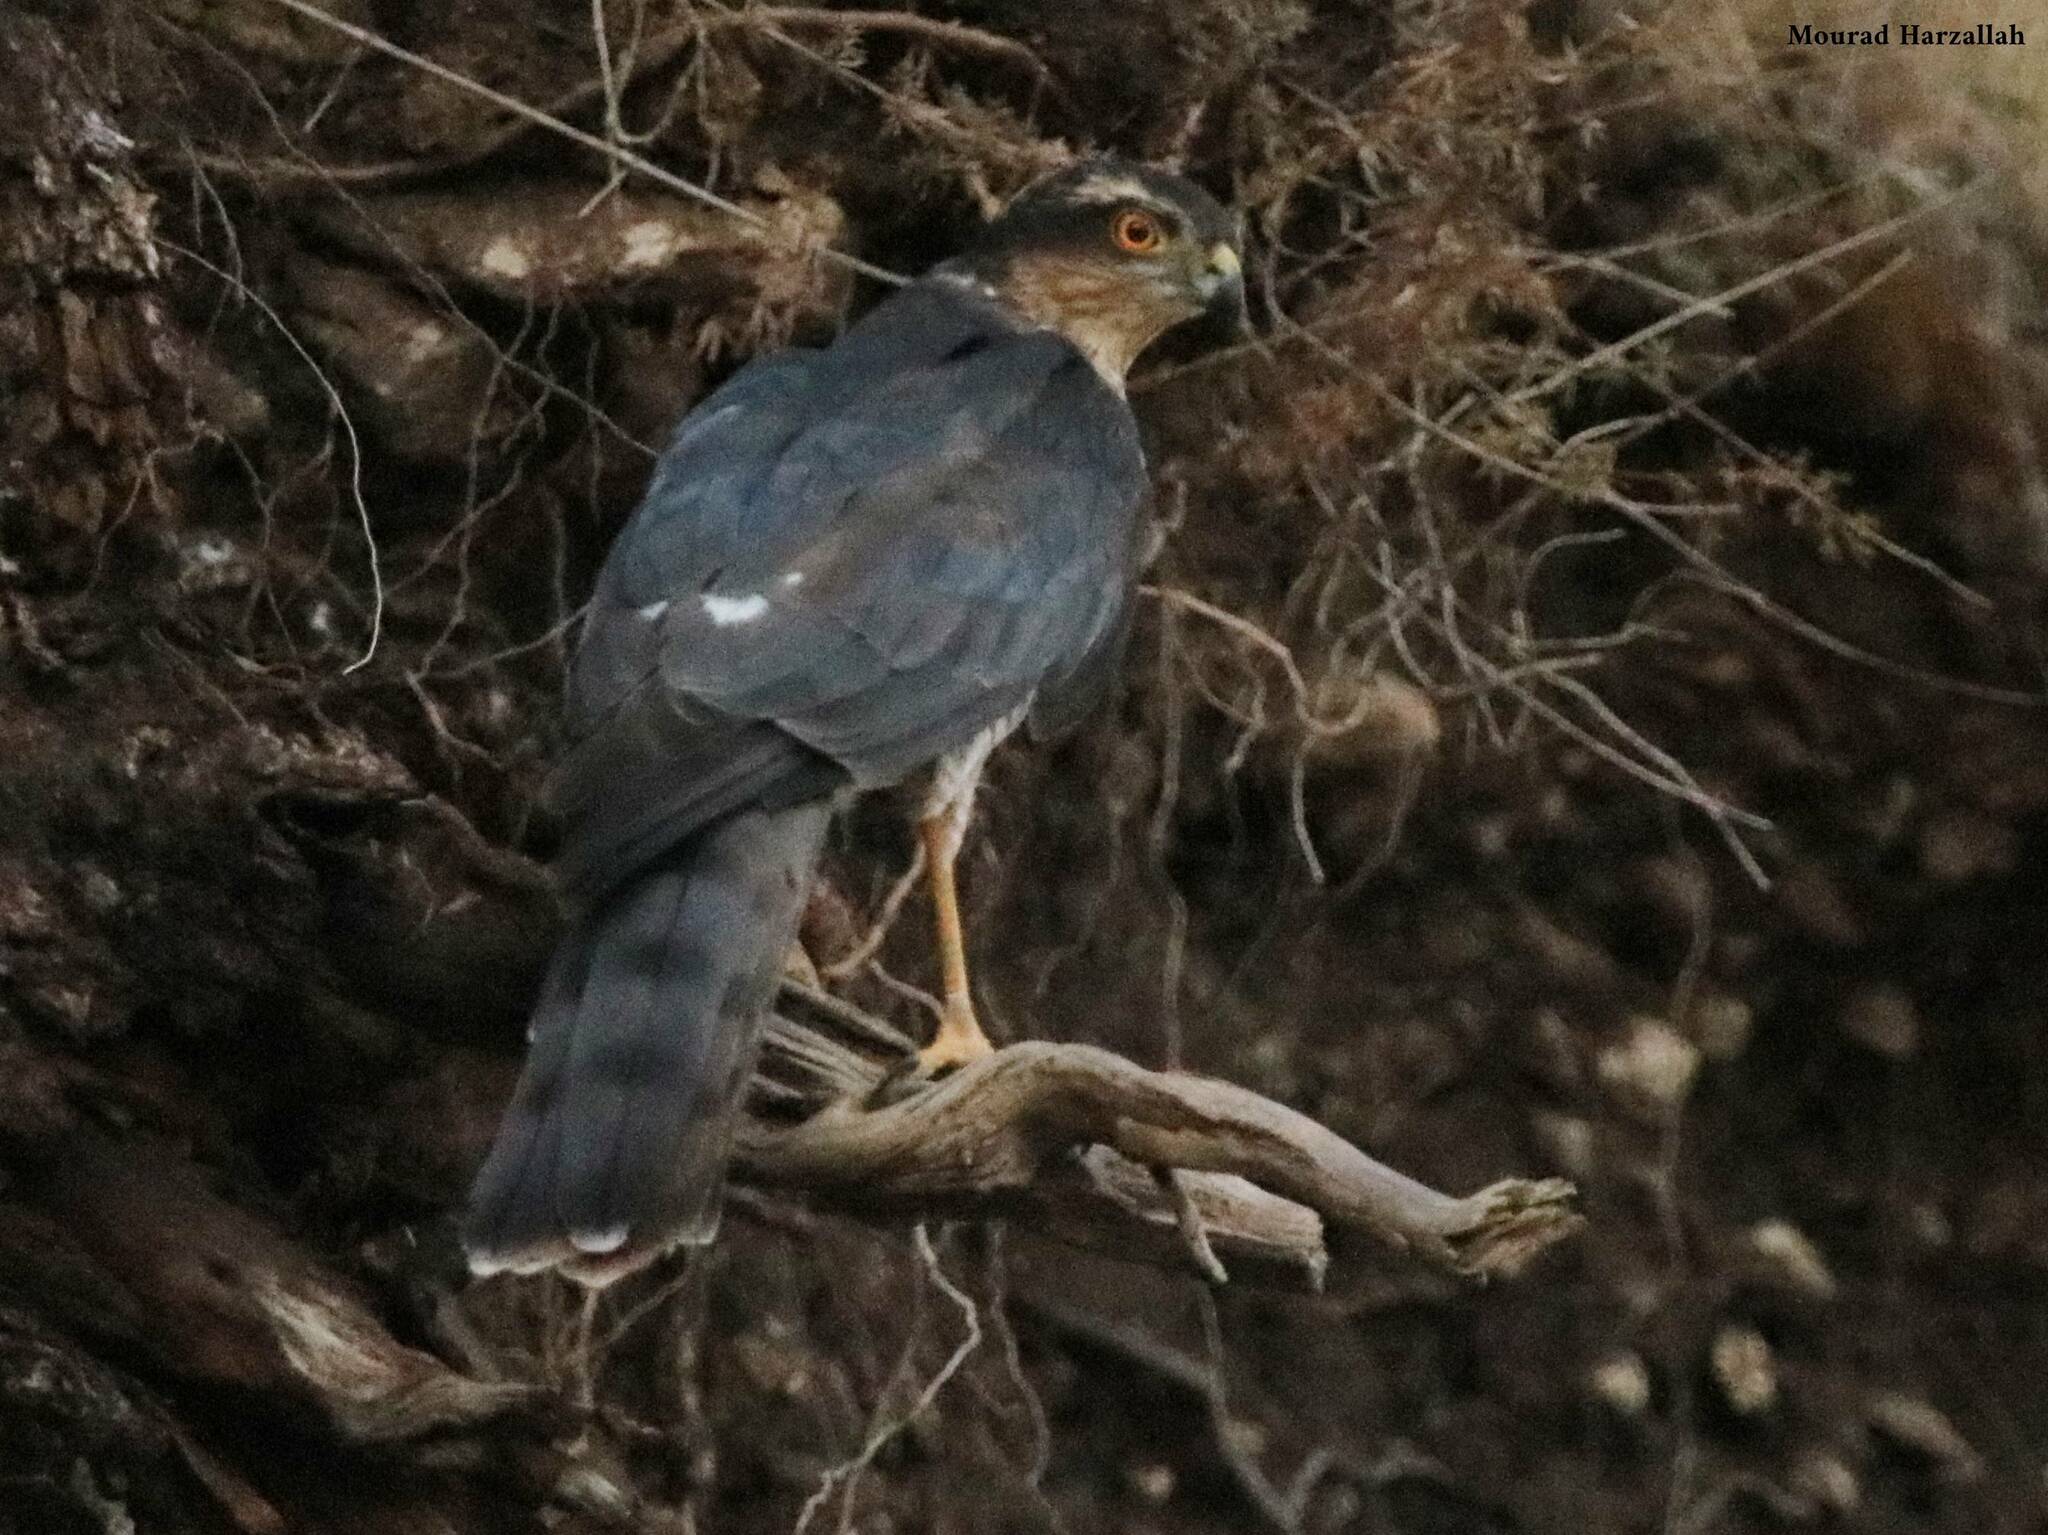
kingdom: Animalia
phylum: Chordata
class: Aves
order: Accipitriformes
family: Accipitridae
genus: Accipiter
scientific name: Accipiter nisus
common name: Eurasian sparrowhawk
